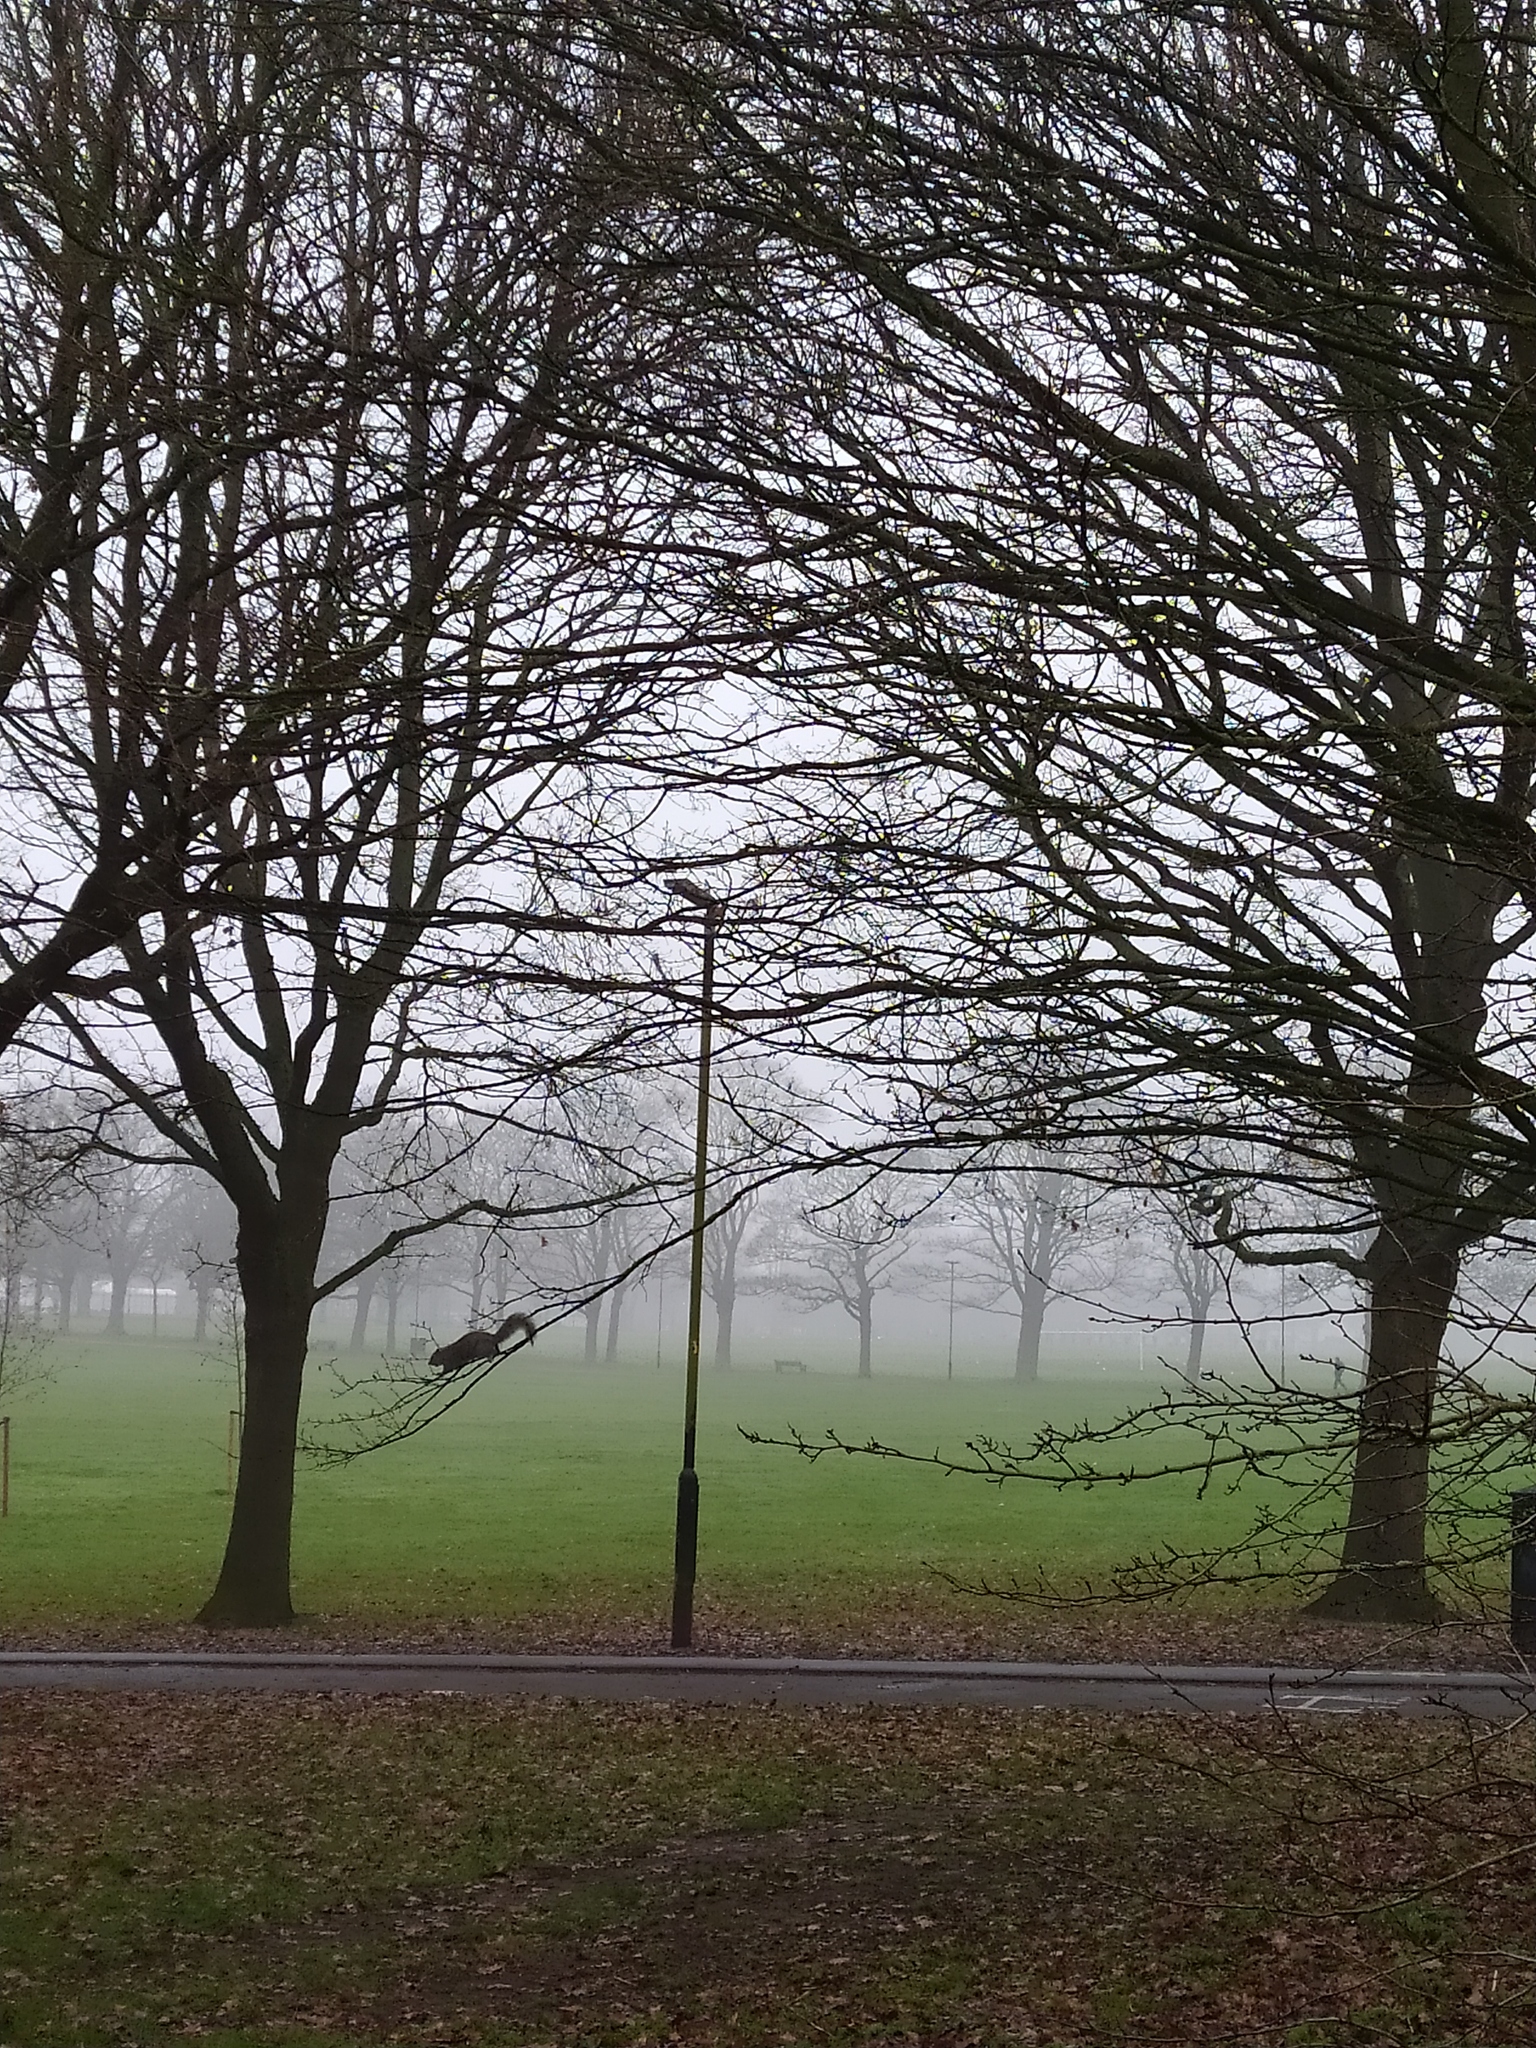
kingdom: Animalia
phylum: Chordata
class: Mammalia
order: Rodentia
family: Sciuridae
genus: Sciurus
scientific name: Sciurus carolinensis
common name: Eastern gray squirrel
